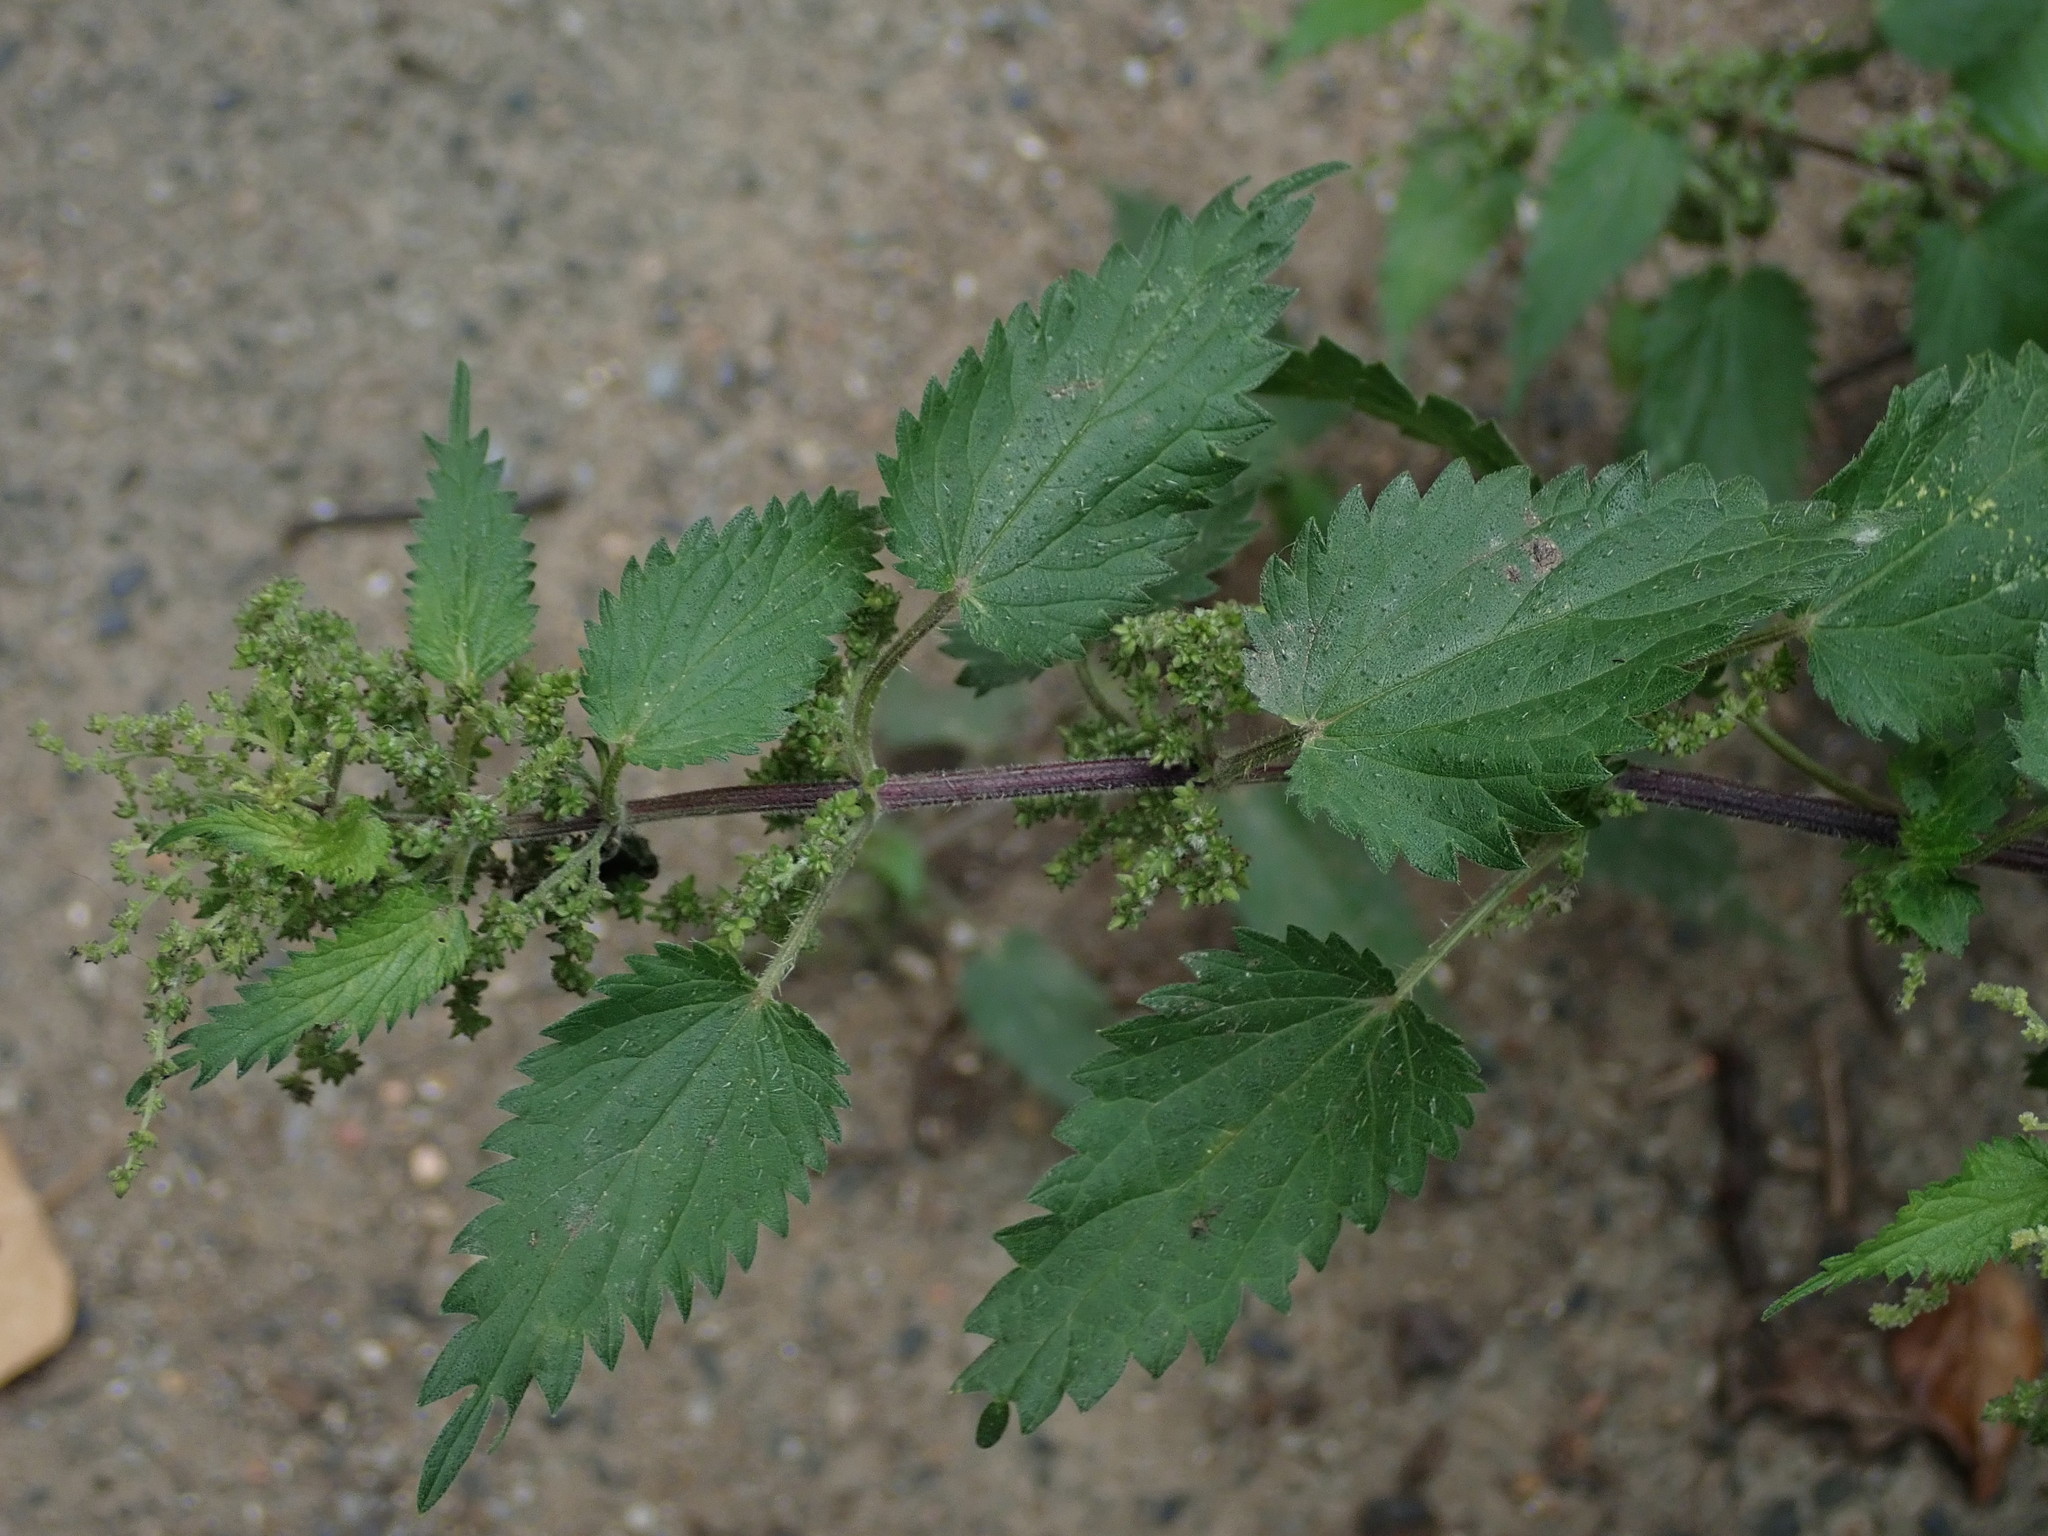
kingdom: Plantae
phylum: Tracheophyta
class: Magnoliopsida
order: Rosales
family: Urticaceae
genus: Urtica
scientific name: Urtica dioica
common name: Common nettle
